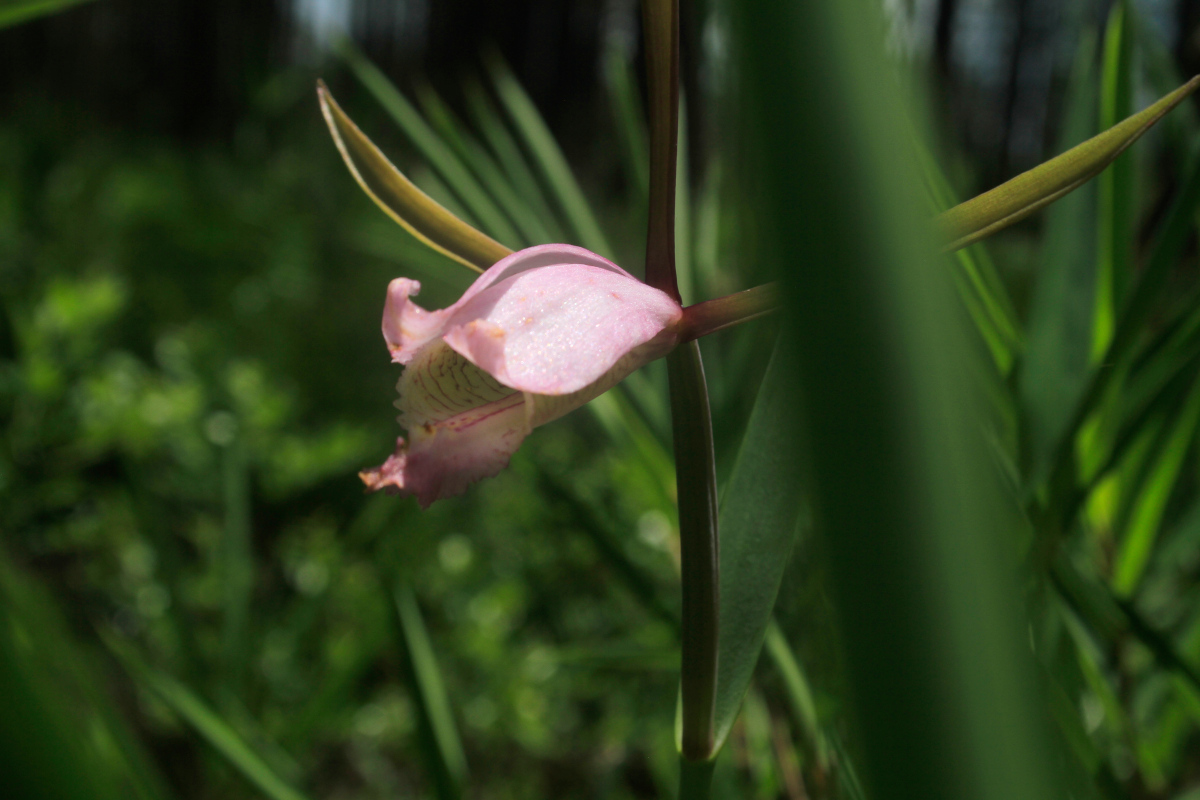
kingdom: Plantae
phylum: Tracheophyta
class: Liliopsida
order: Asparagales
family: Orchidaceae
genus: Cleistesiopsis
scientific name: Cleistesiopsis divaricata
